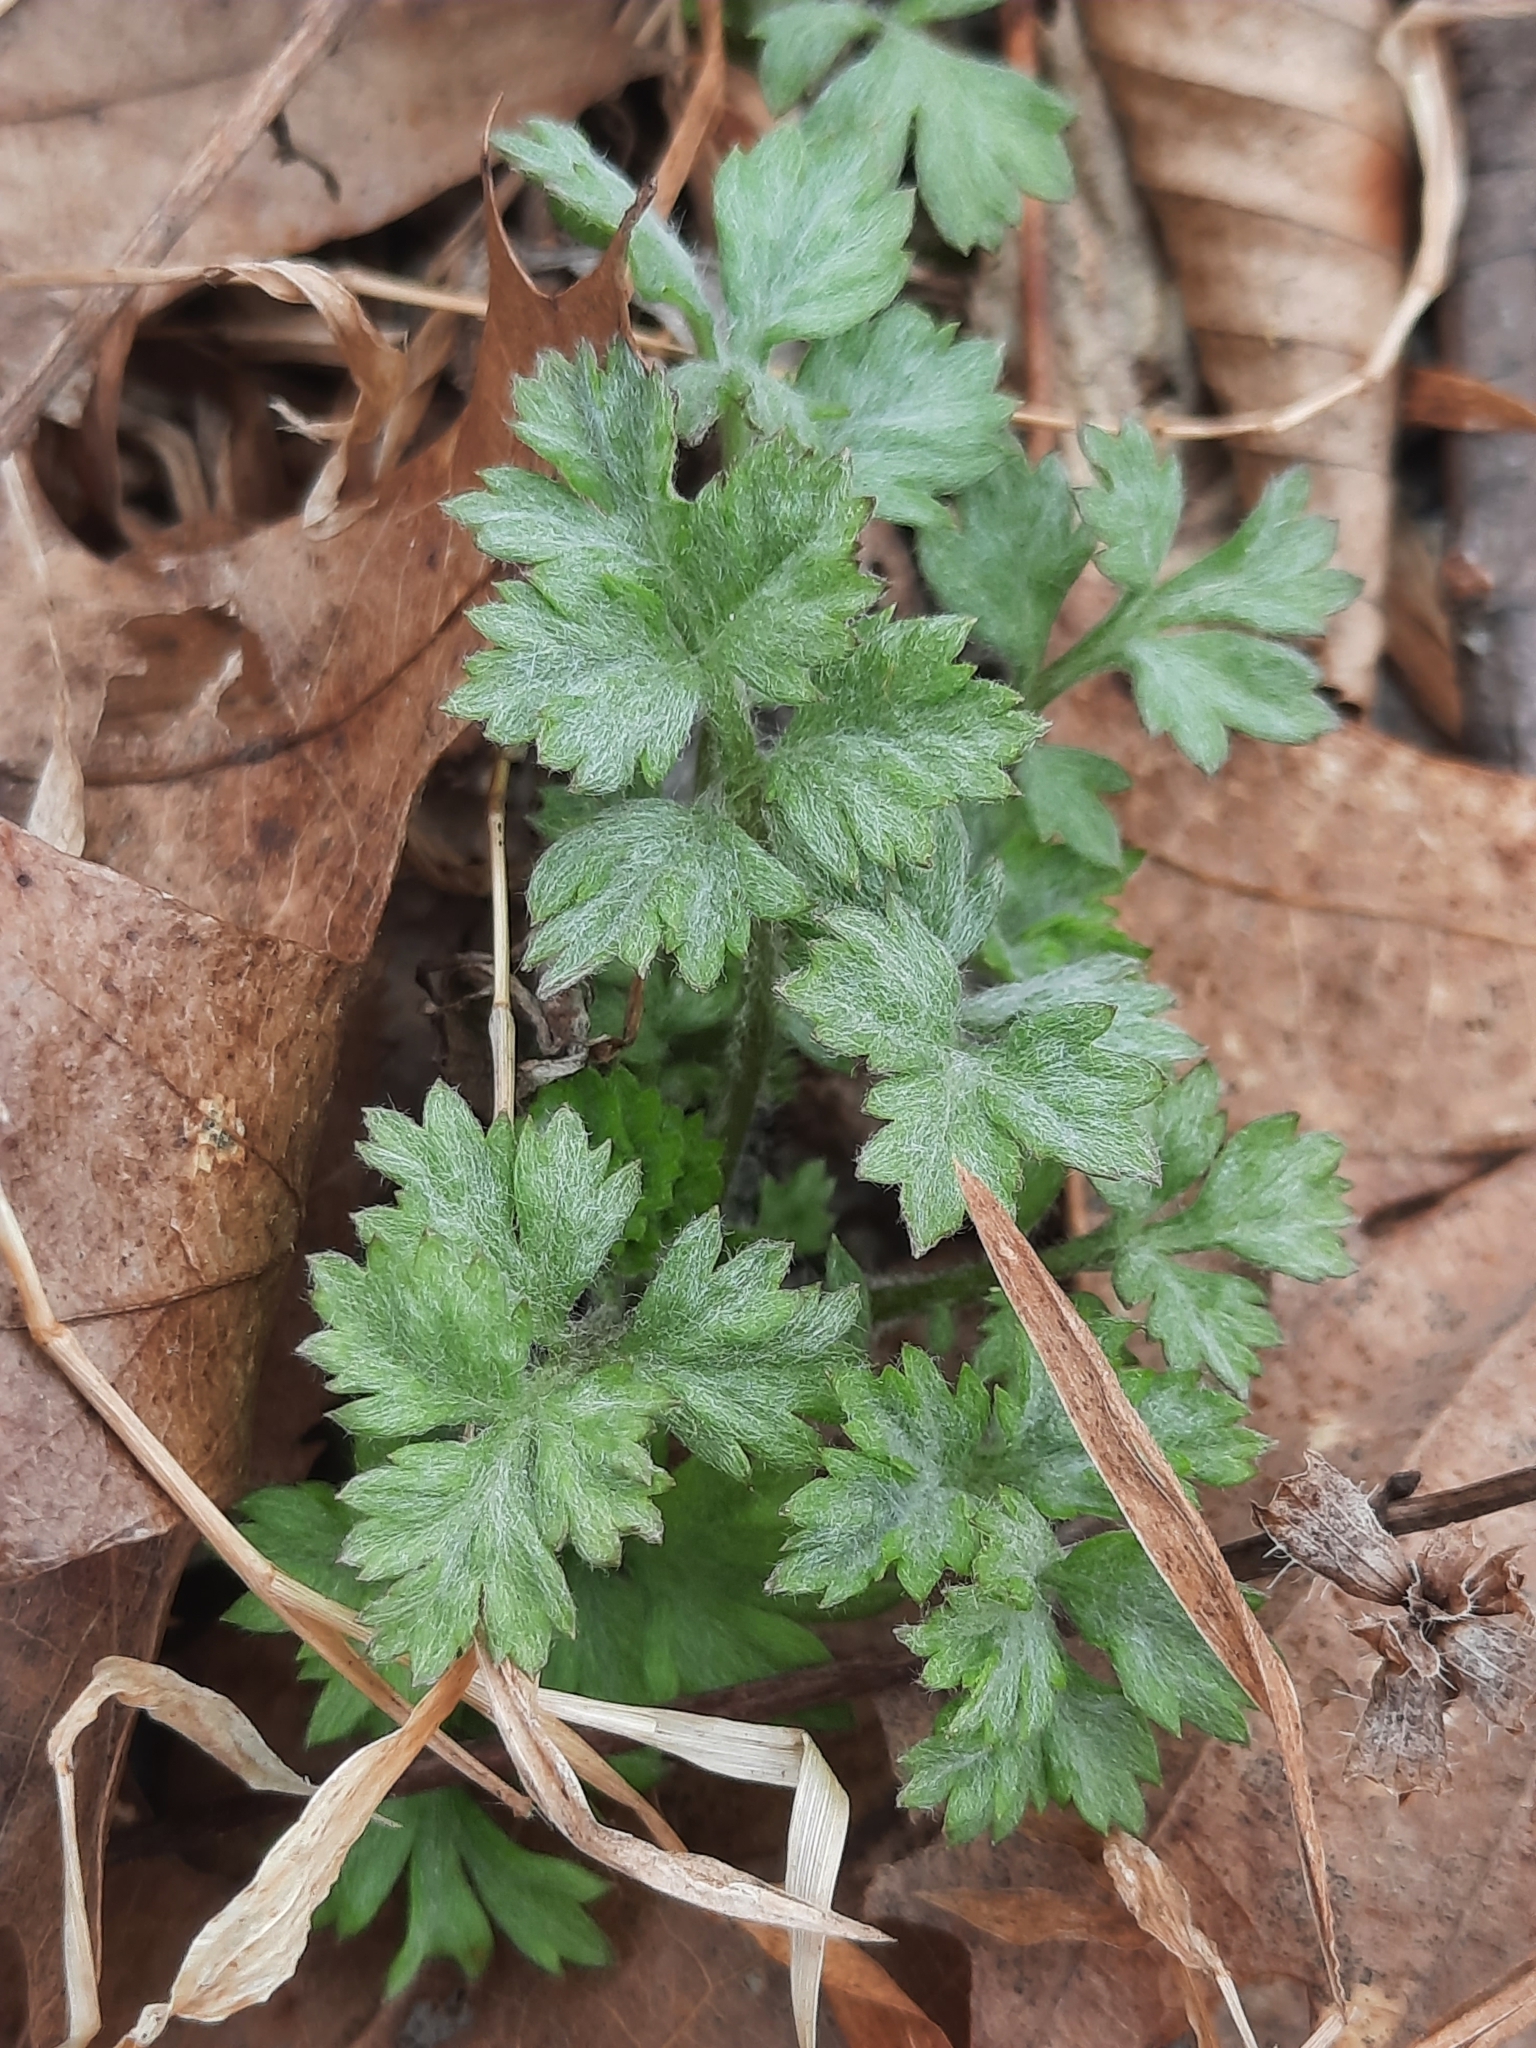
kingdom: Plantae
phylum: Tracheophyta
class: Magnoliopsida
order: Asterales
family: Asteraceae
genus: Artemisia
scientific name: Artemisia vulgaris
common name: Mugwort
